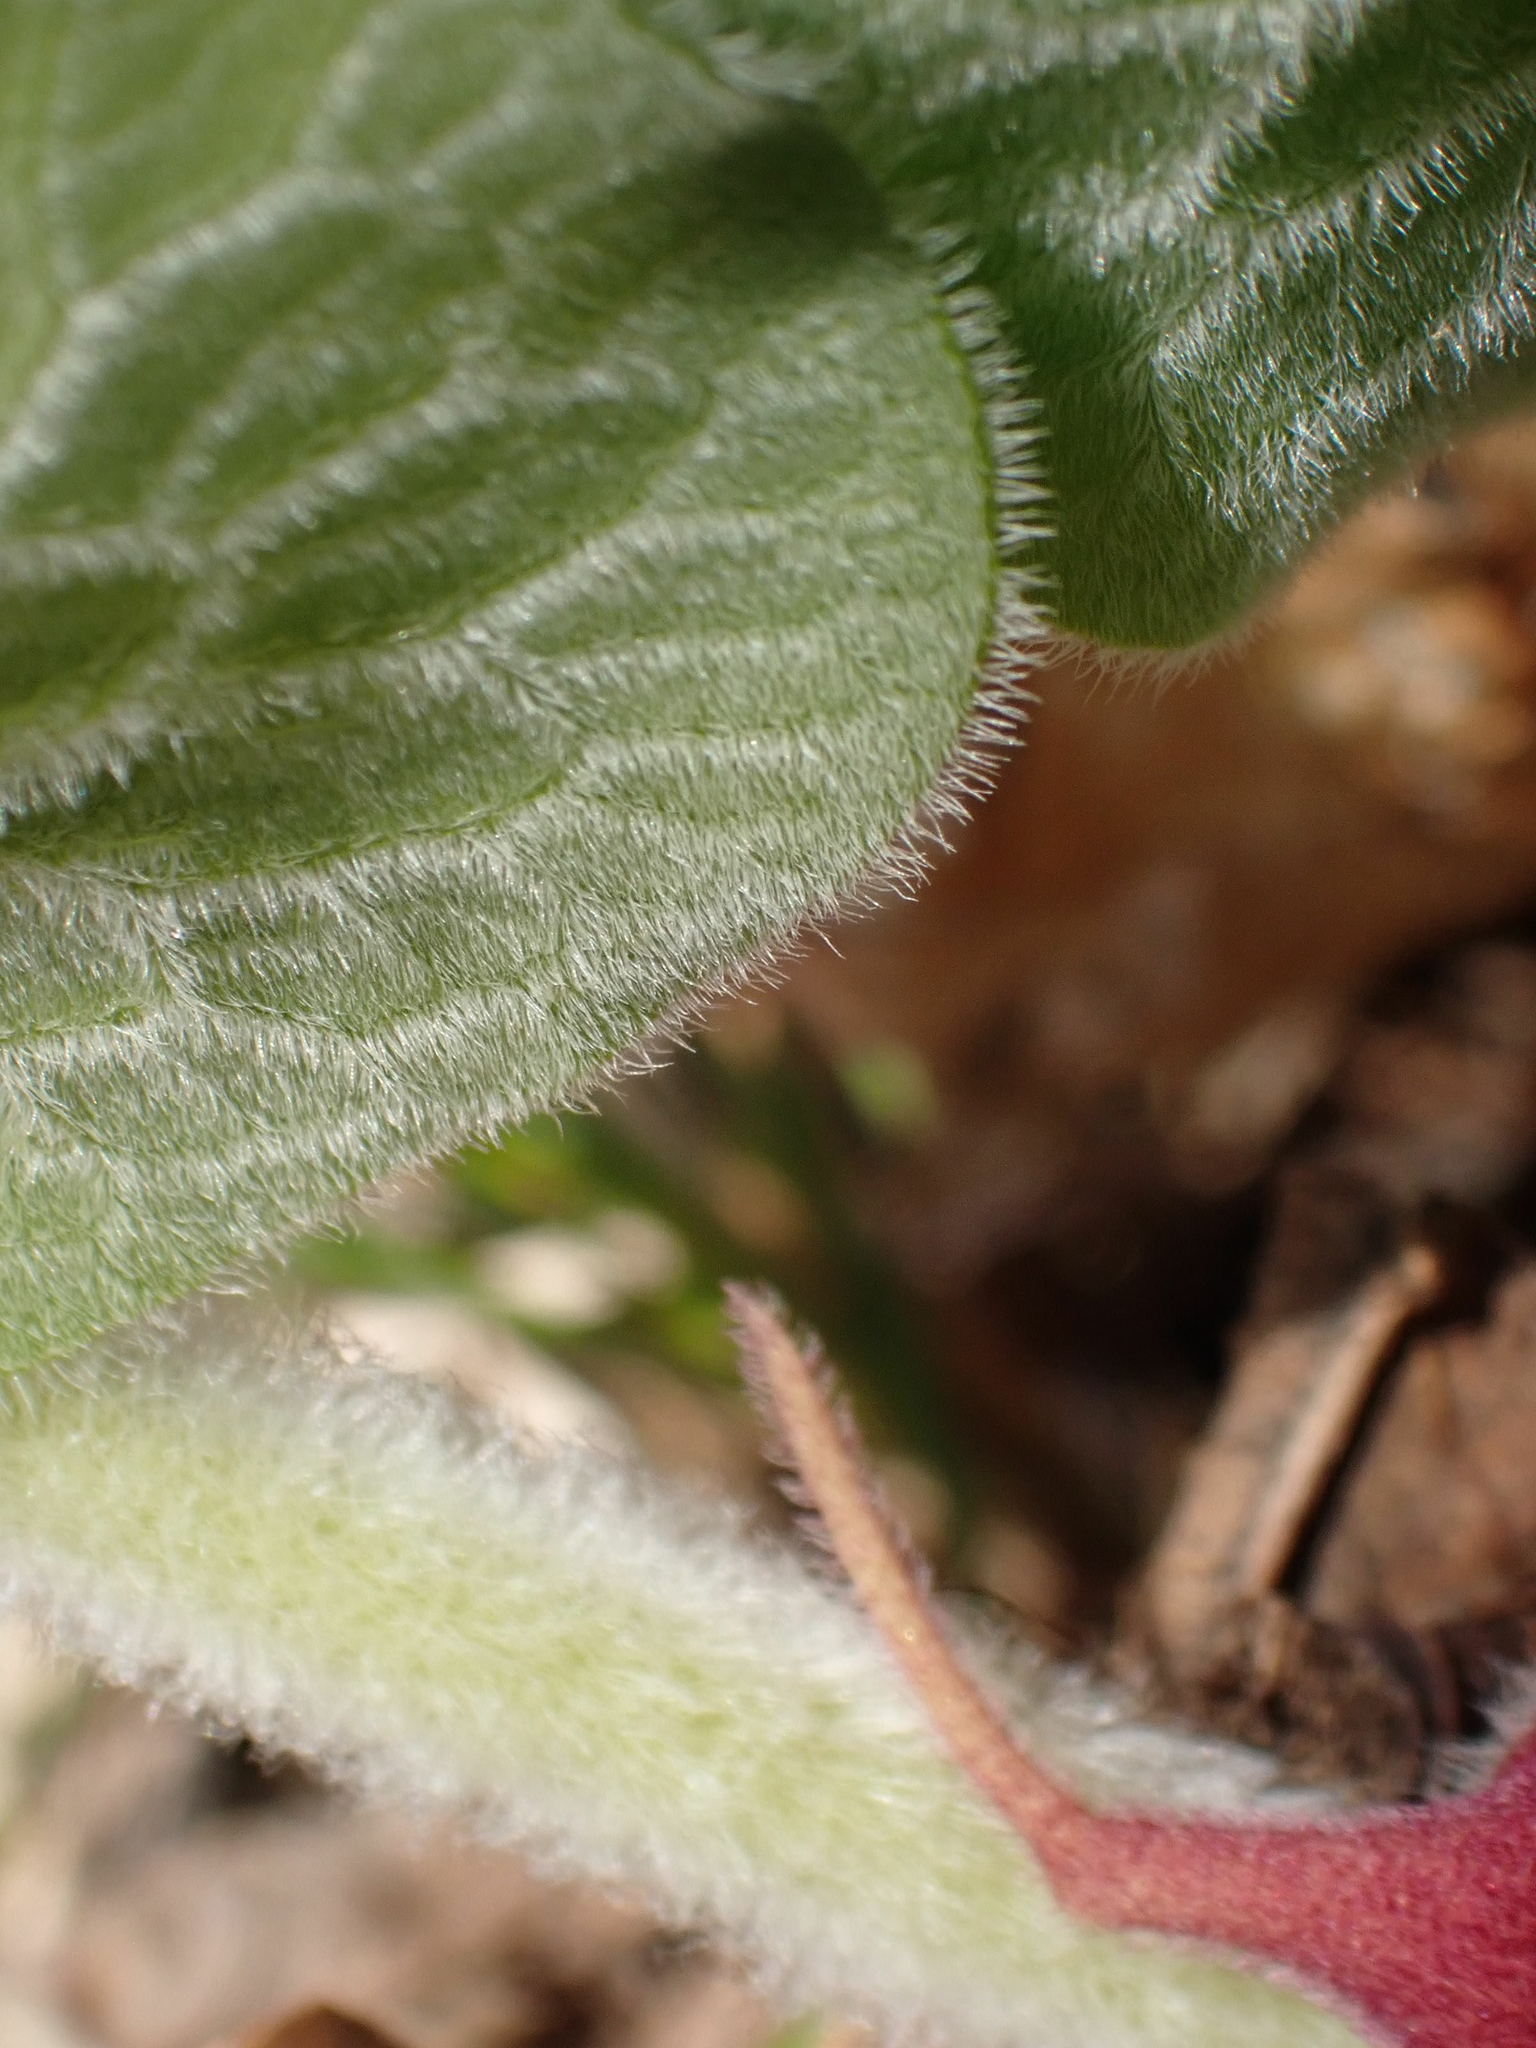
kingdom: Plantae
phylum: Tracheophyta
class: Magnoliopsida
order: Piperales
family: Aristolochiaceae
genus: Asarum
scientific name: Asarum canadense
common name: Wild ginger
